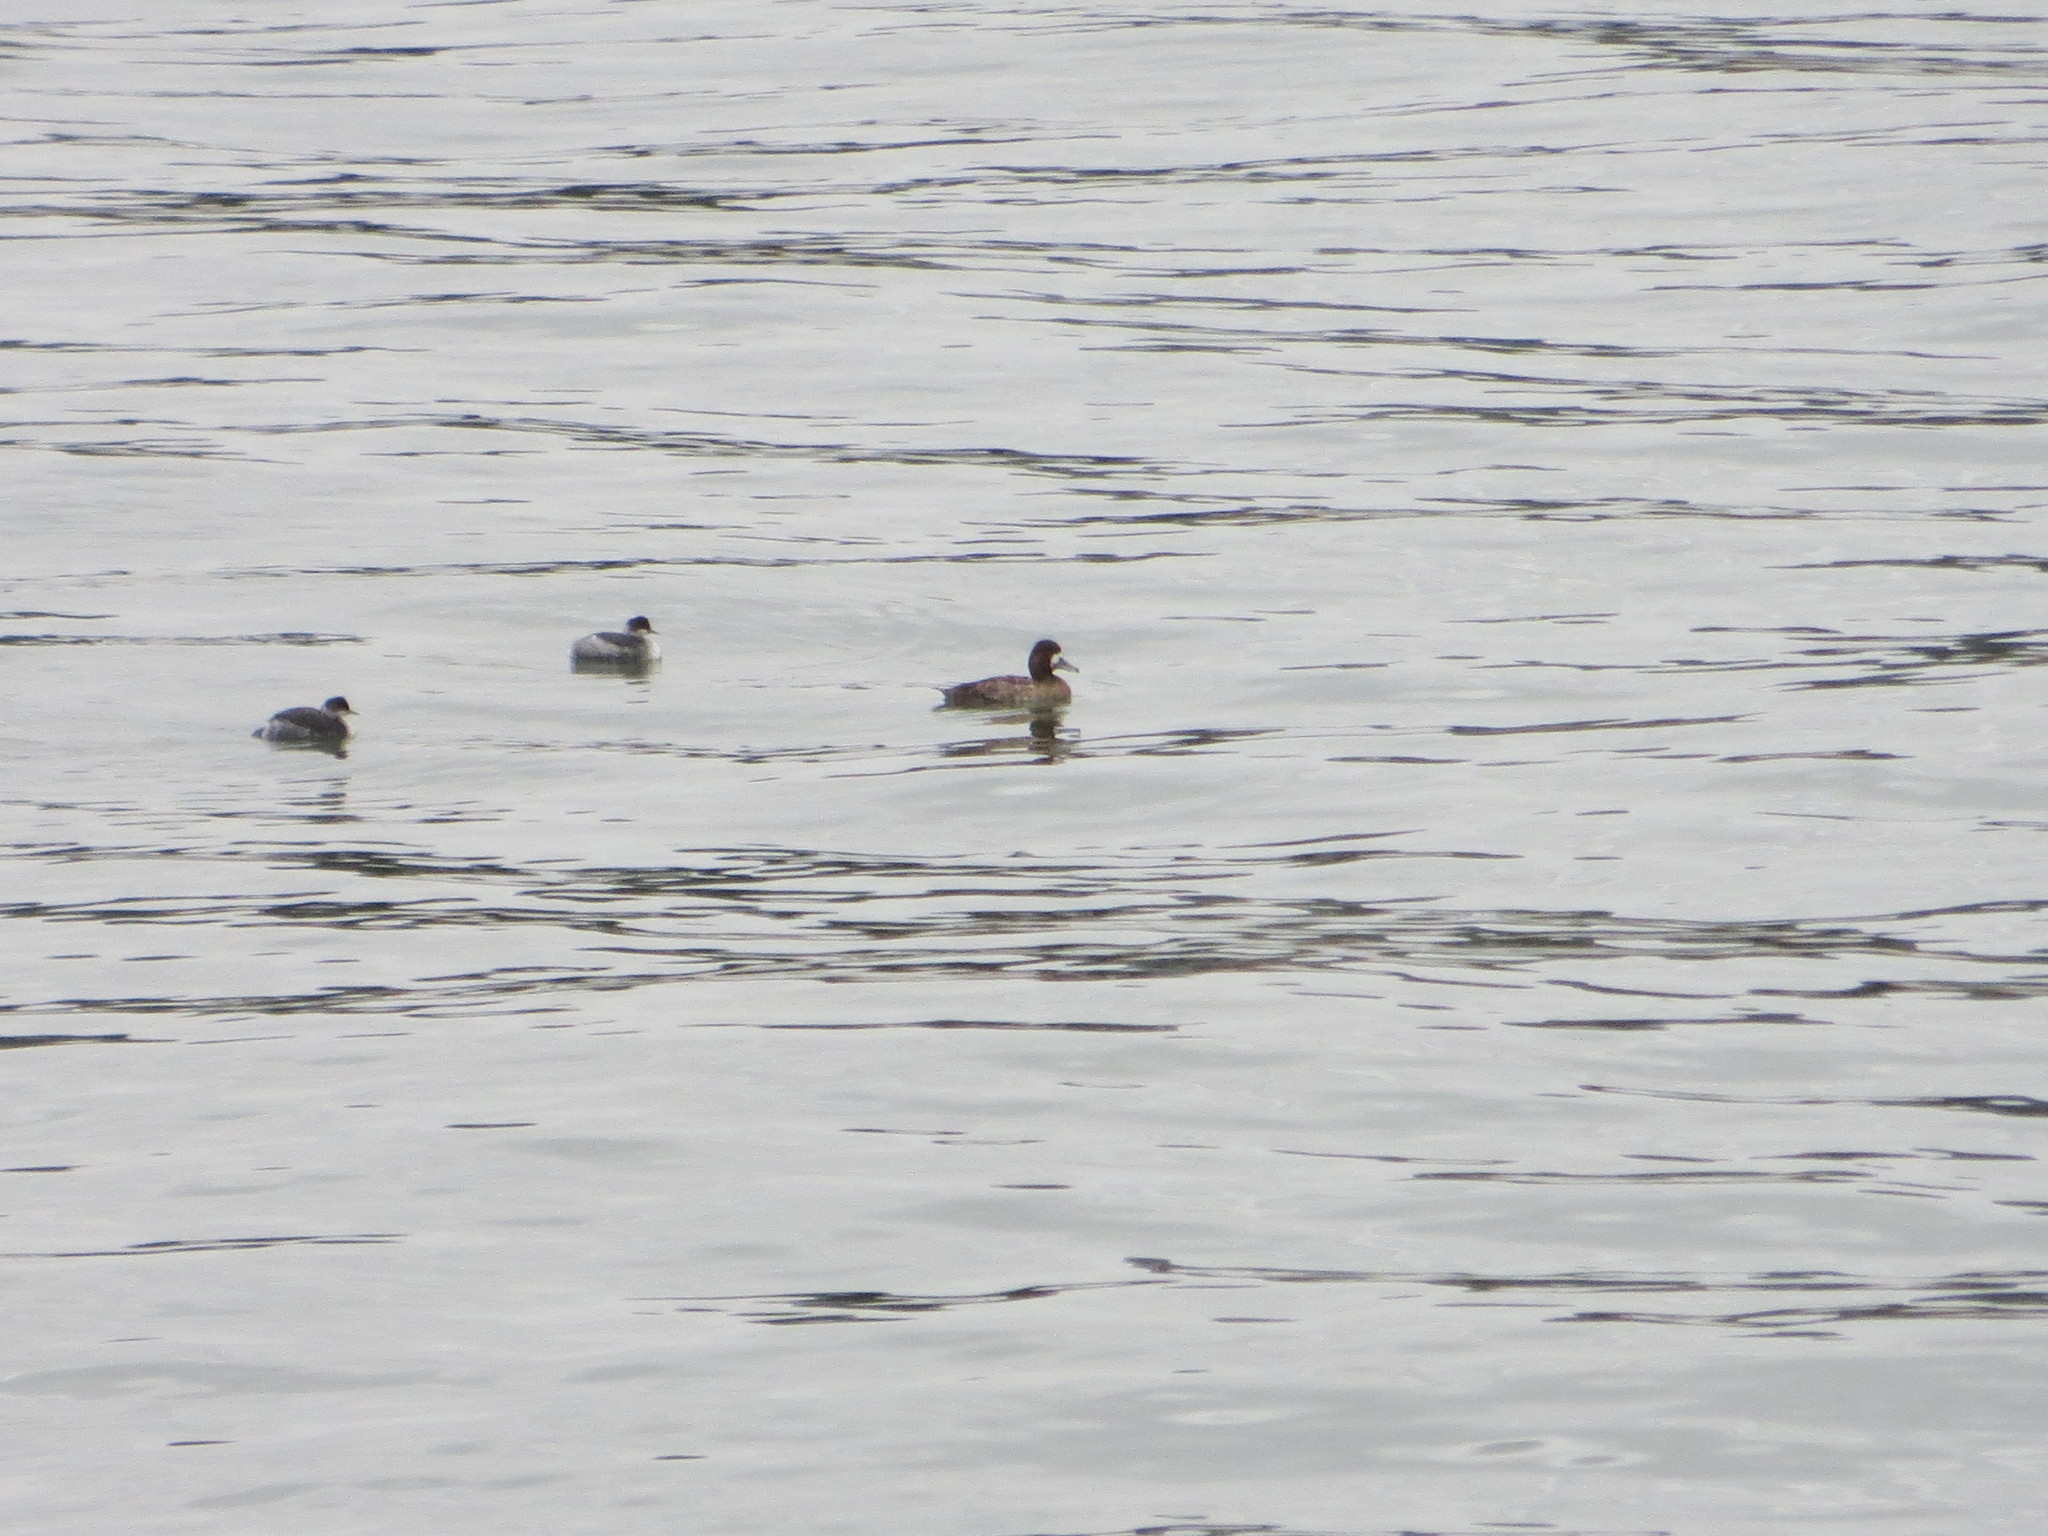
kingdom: Animalia
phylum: Chordata
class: Aves
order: Anseriformes
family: Anatidae
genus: Aythya
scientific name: Aythya marila
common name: Greater scaup
